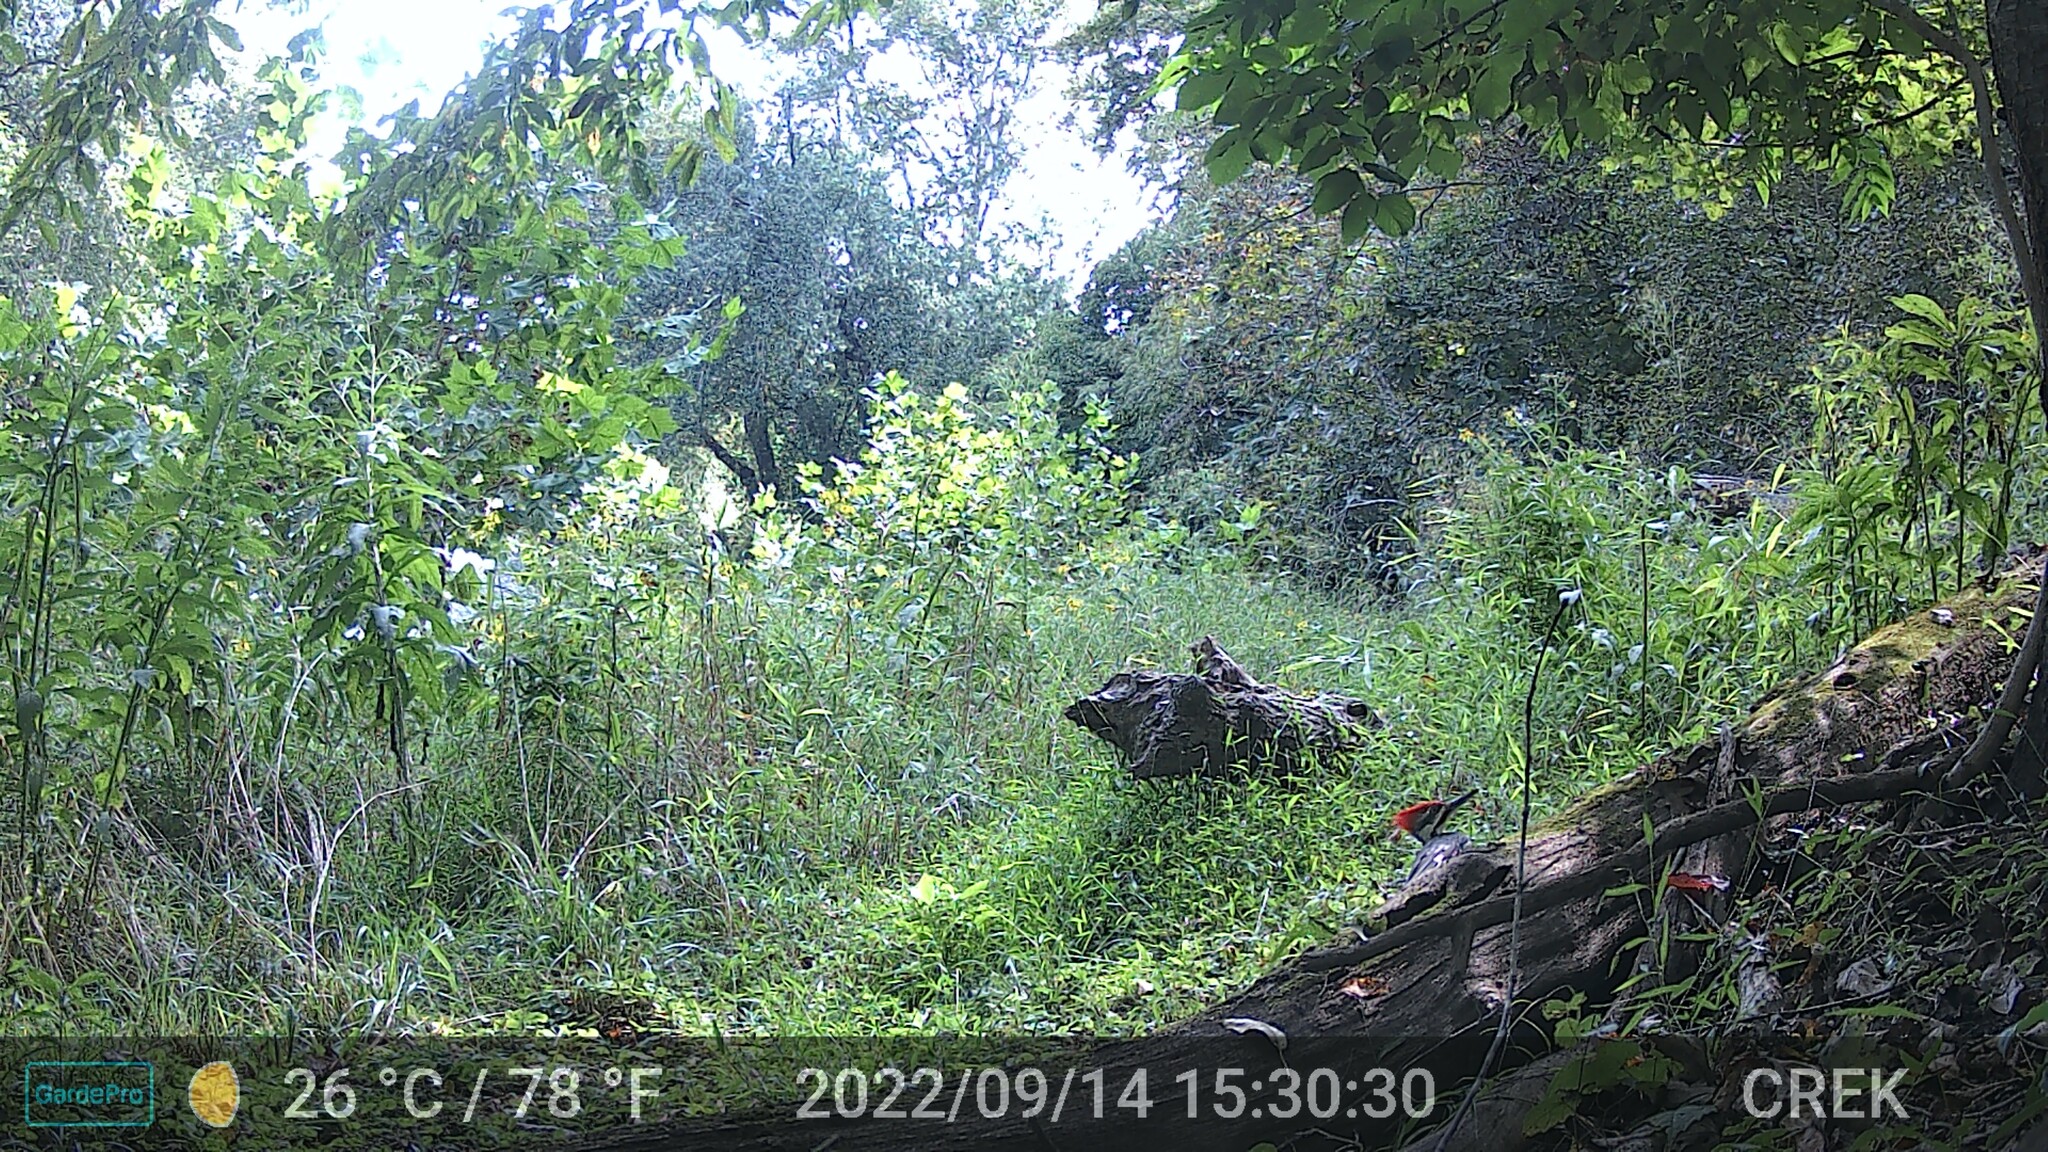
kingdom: Animalia
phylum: Chordata
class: Aves
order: Piciformes
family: Picidae
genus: Dryocopus
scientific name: Dryocopus pileatus
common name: Pileated woodpecker
